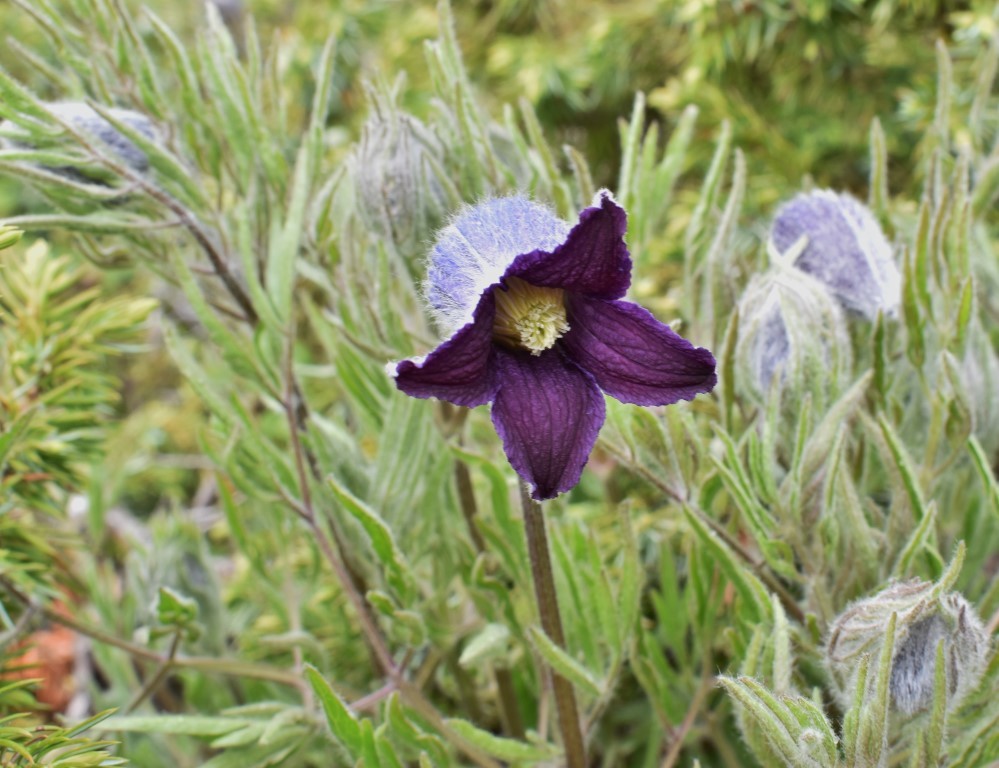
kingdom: Plantae
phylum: Tracheophyta
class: Magnoliopsida
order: Ranunculales
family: Ranunculaceae
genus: Clematis
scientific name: Clematis hirsutissima
